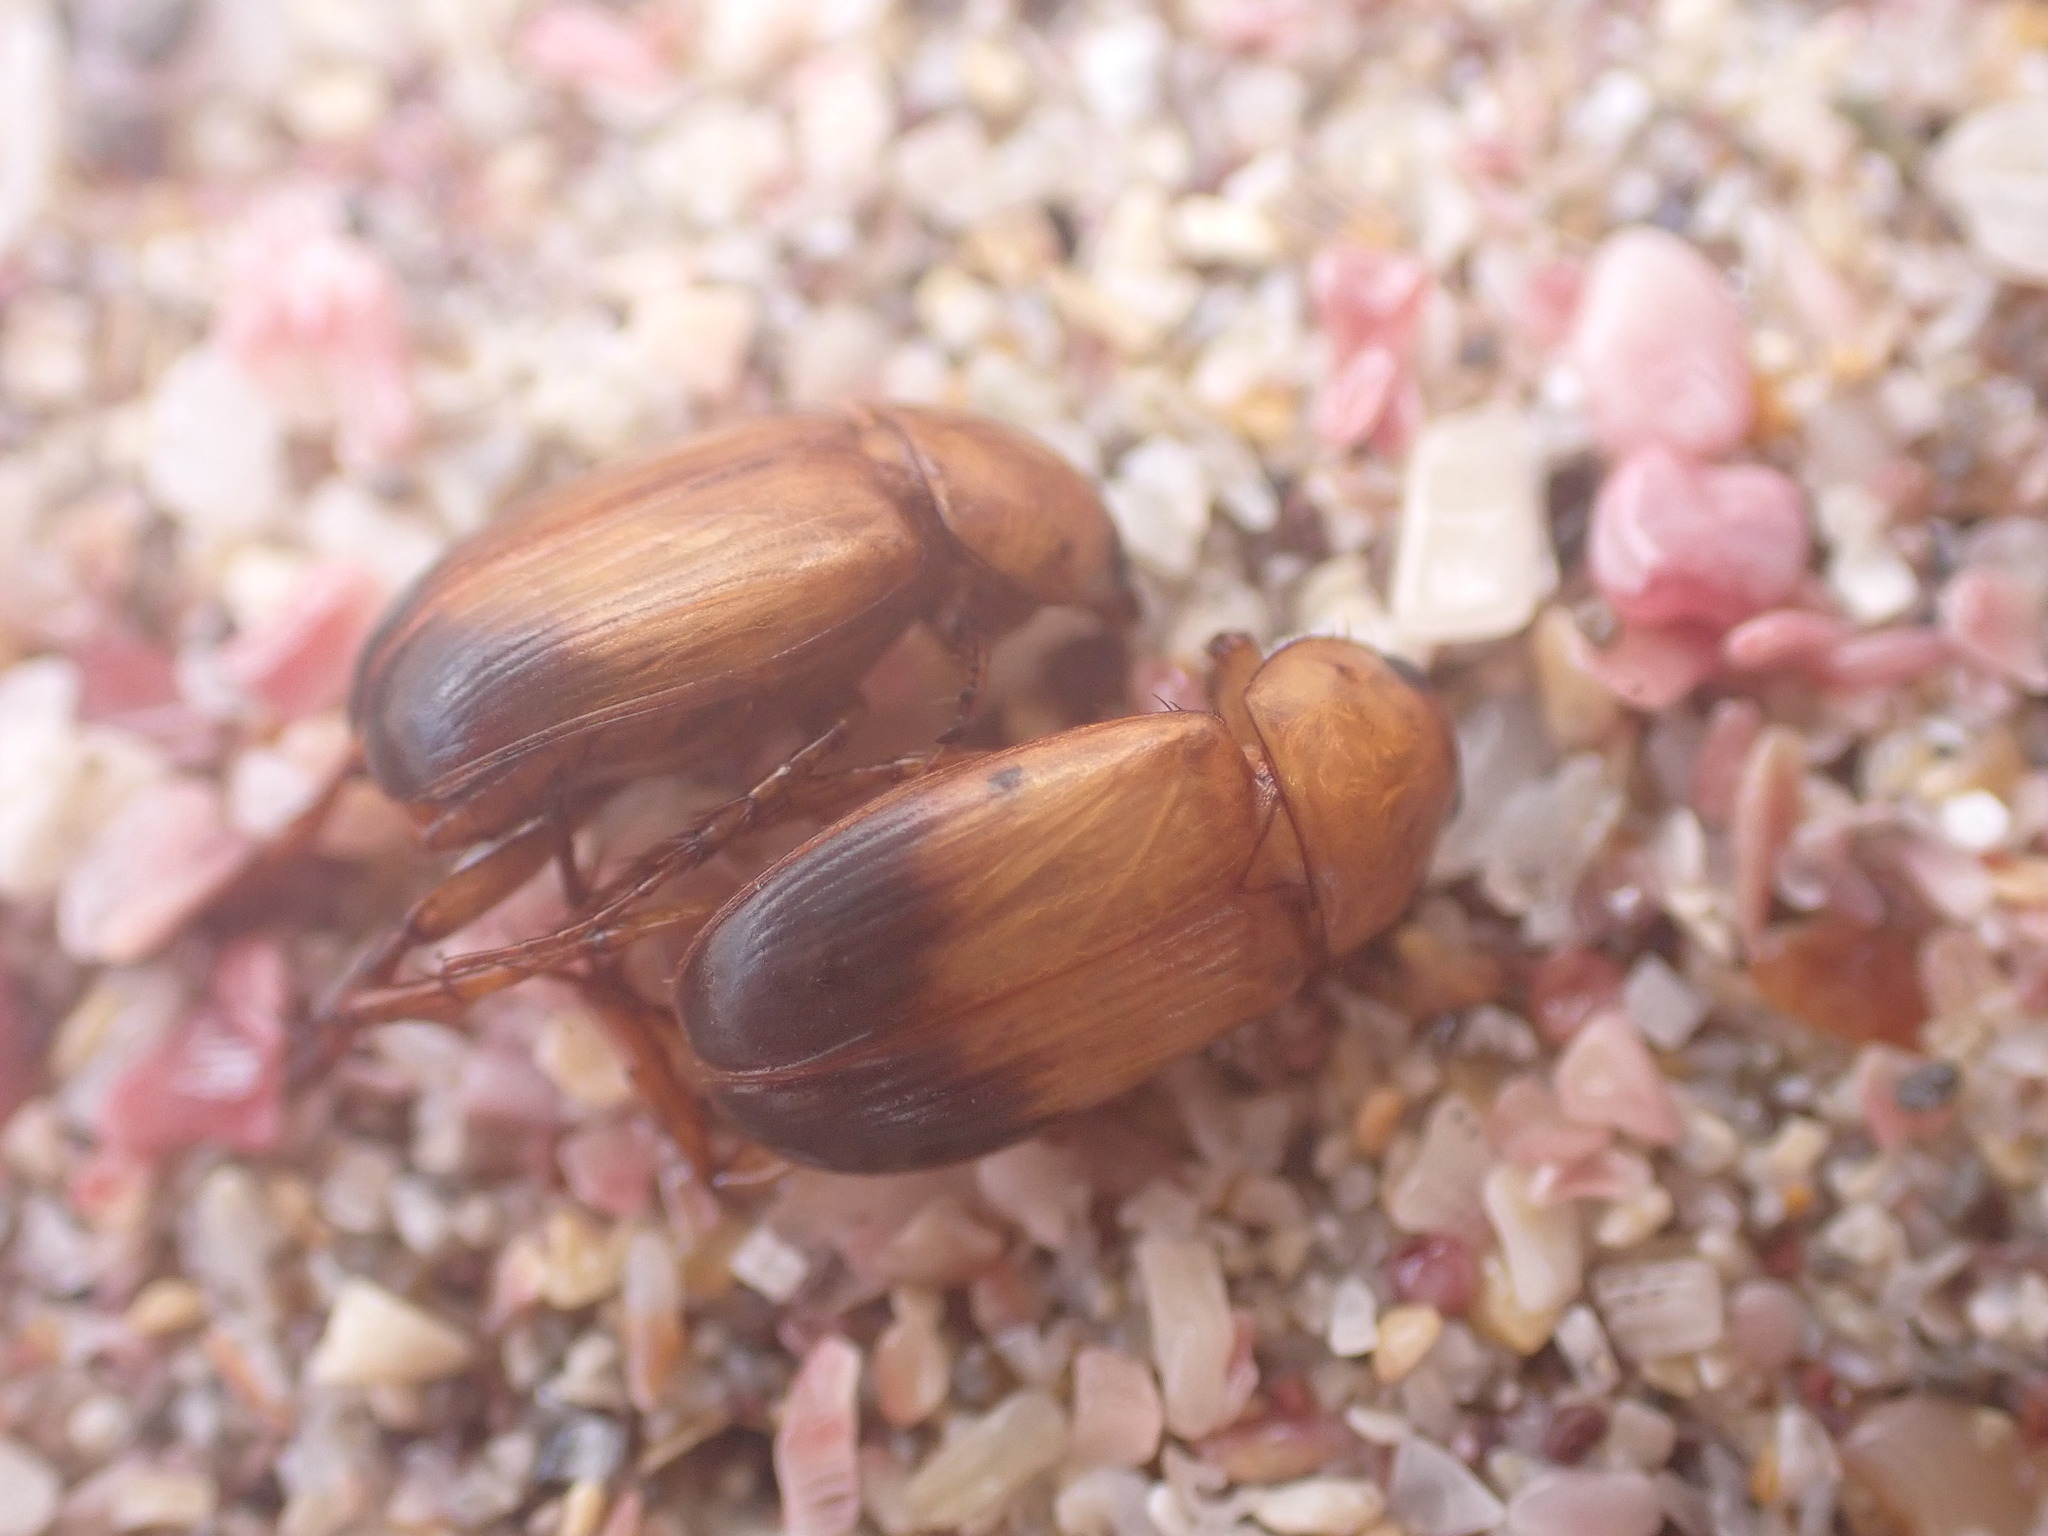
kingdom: Animalia
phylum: Arthropoda
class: Insecta
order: Coleoptera
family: Scarabaeidae
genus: Phyllotocus
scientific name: Phyllotocus macleayi
